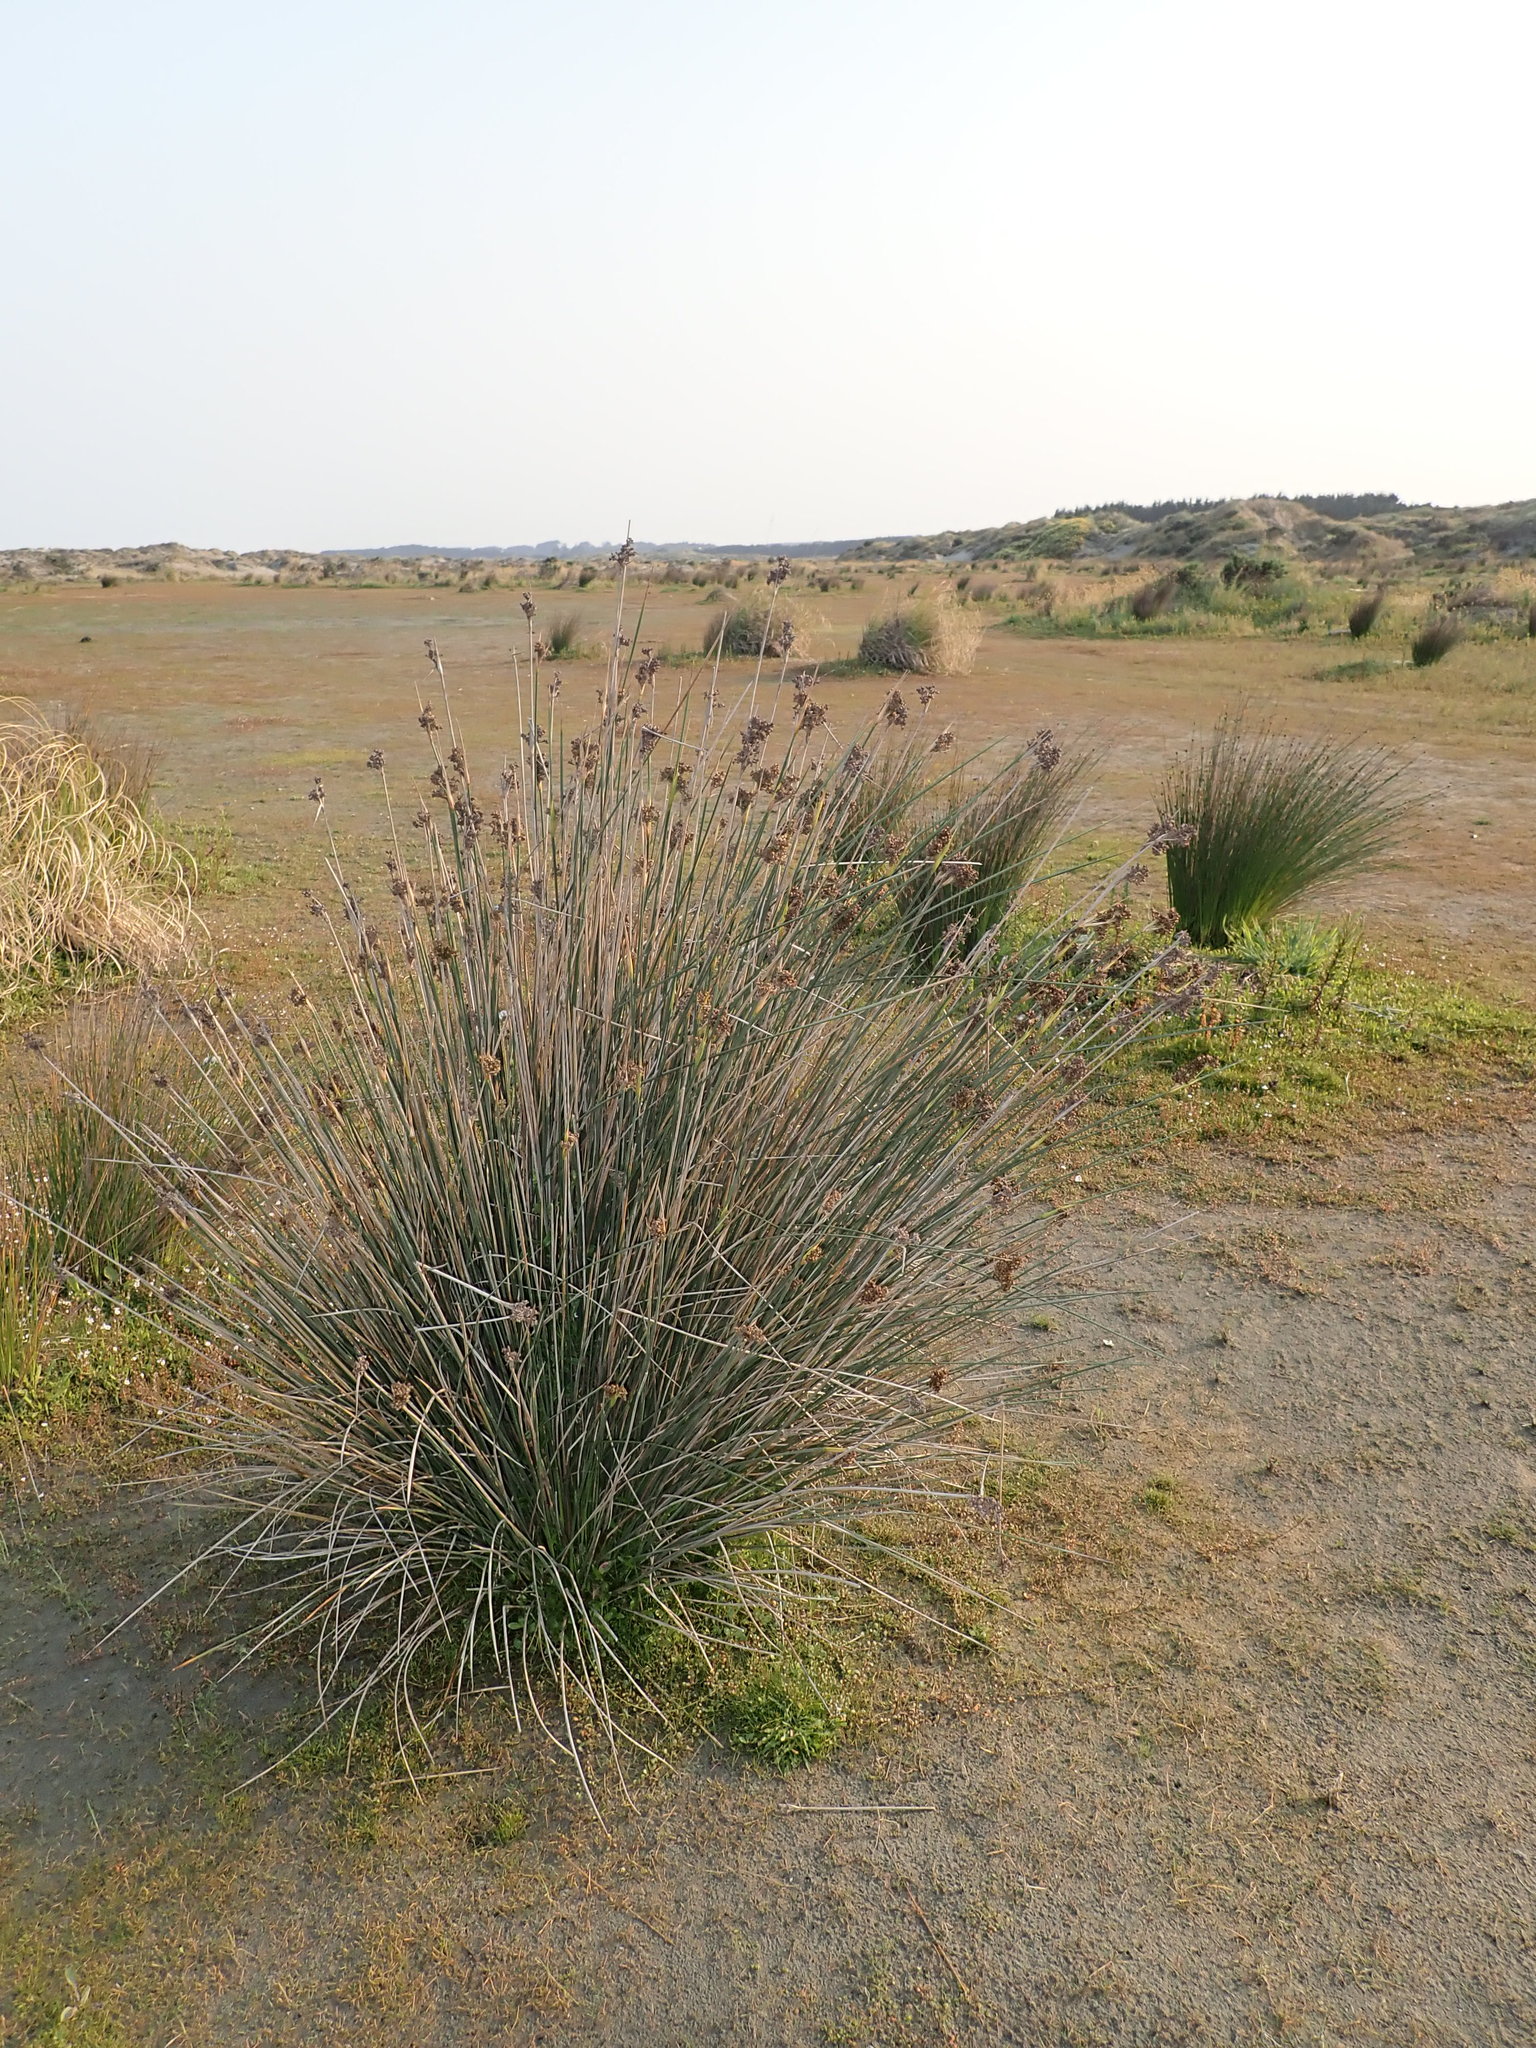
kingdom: Plantae
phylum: Tracheophyta
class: Liliopsida
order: Poales
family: Juncaceae
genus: Juncus
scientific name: Juncus acutus
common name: Sharp rush
